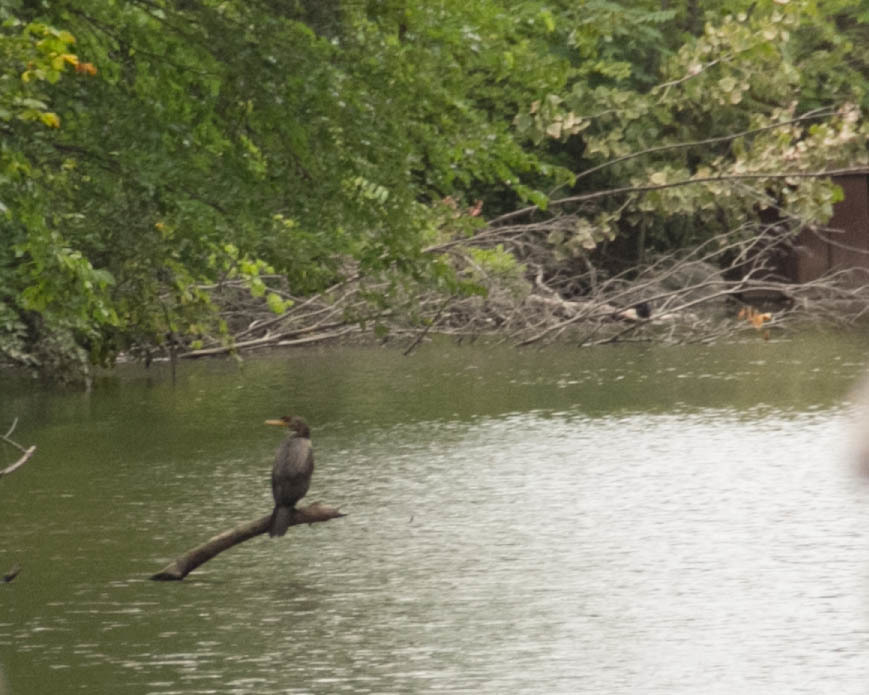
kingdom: Animalia
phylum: Chordata
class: Aves
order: Suliformes
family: Phalacrocoracidae
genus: Phalacrocorax
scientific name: Phalacrocorax auritus
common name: Double-crested cormorant
